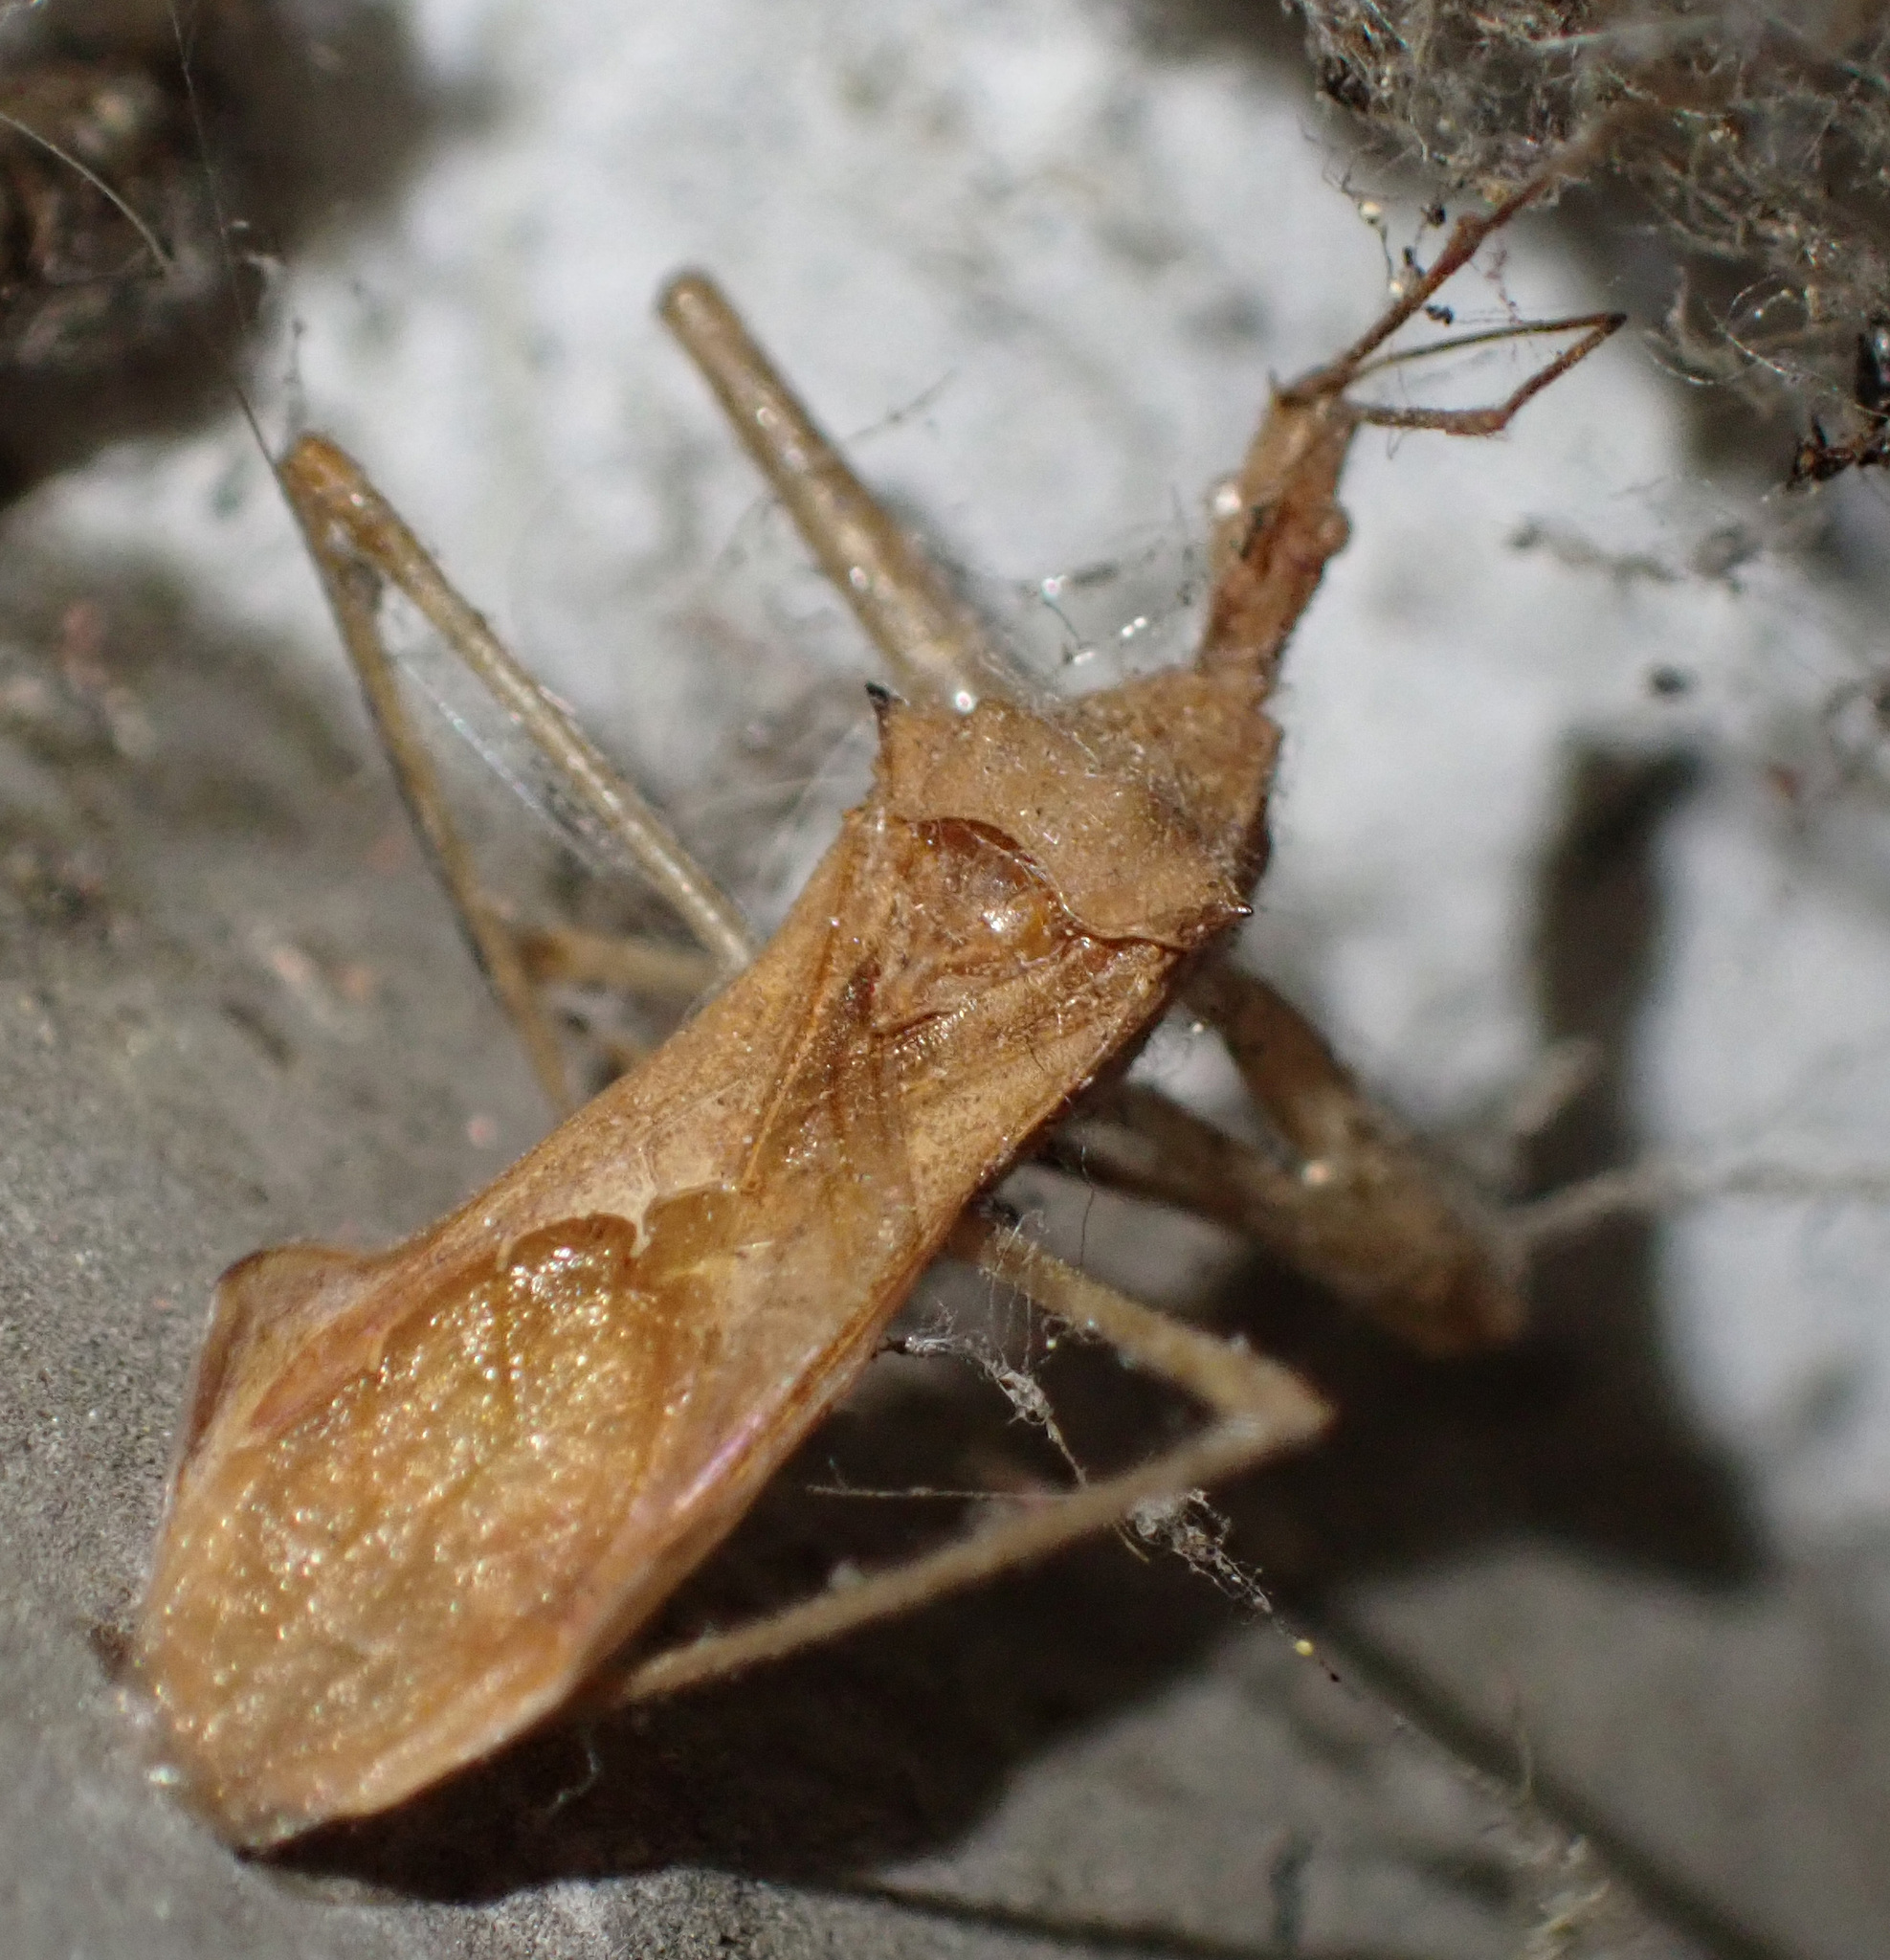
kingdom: Animalia
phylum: Arthropoda
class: Insecta
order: Hemiptera
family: Reduviidae
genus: Nagusta
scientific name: Nagusta goedelii
